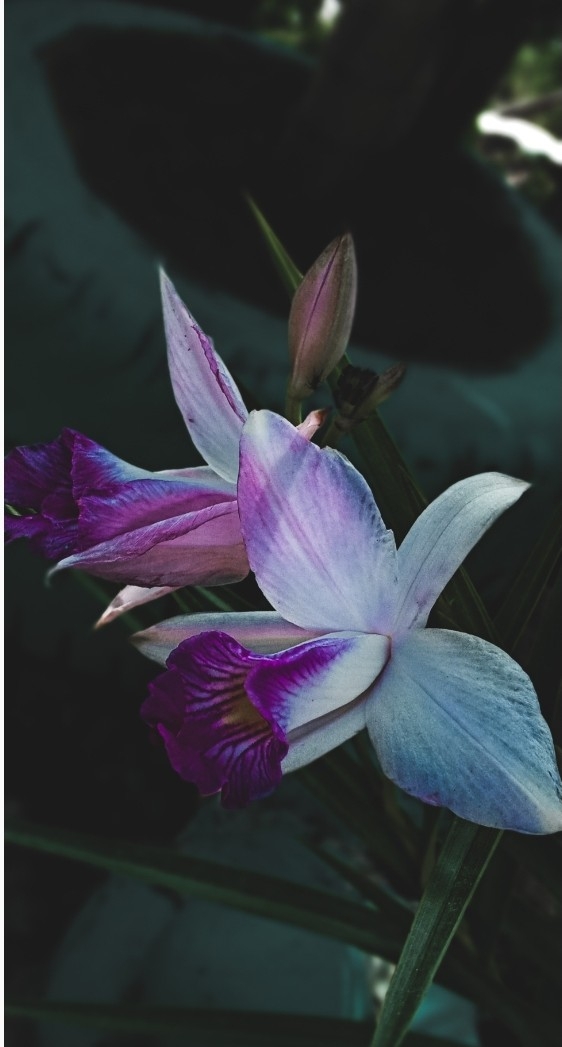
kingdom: Plantae
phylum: Tracheophyta
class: Liliopsida
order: Asparagales
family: Orchidaceae
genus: Arundina
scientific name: Arundina graminifolia
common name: Bamboo orchid
